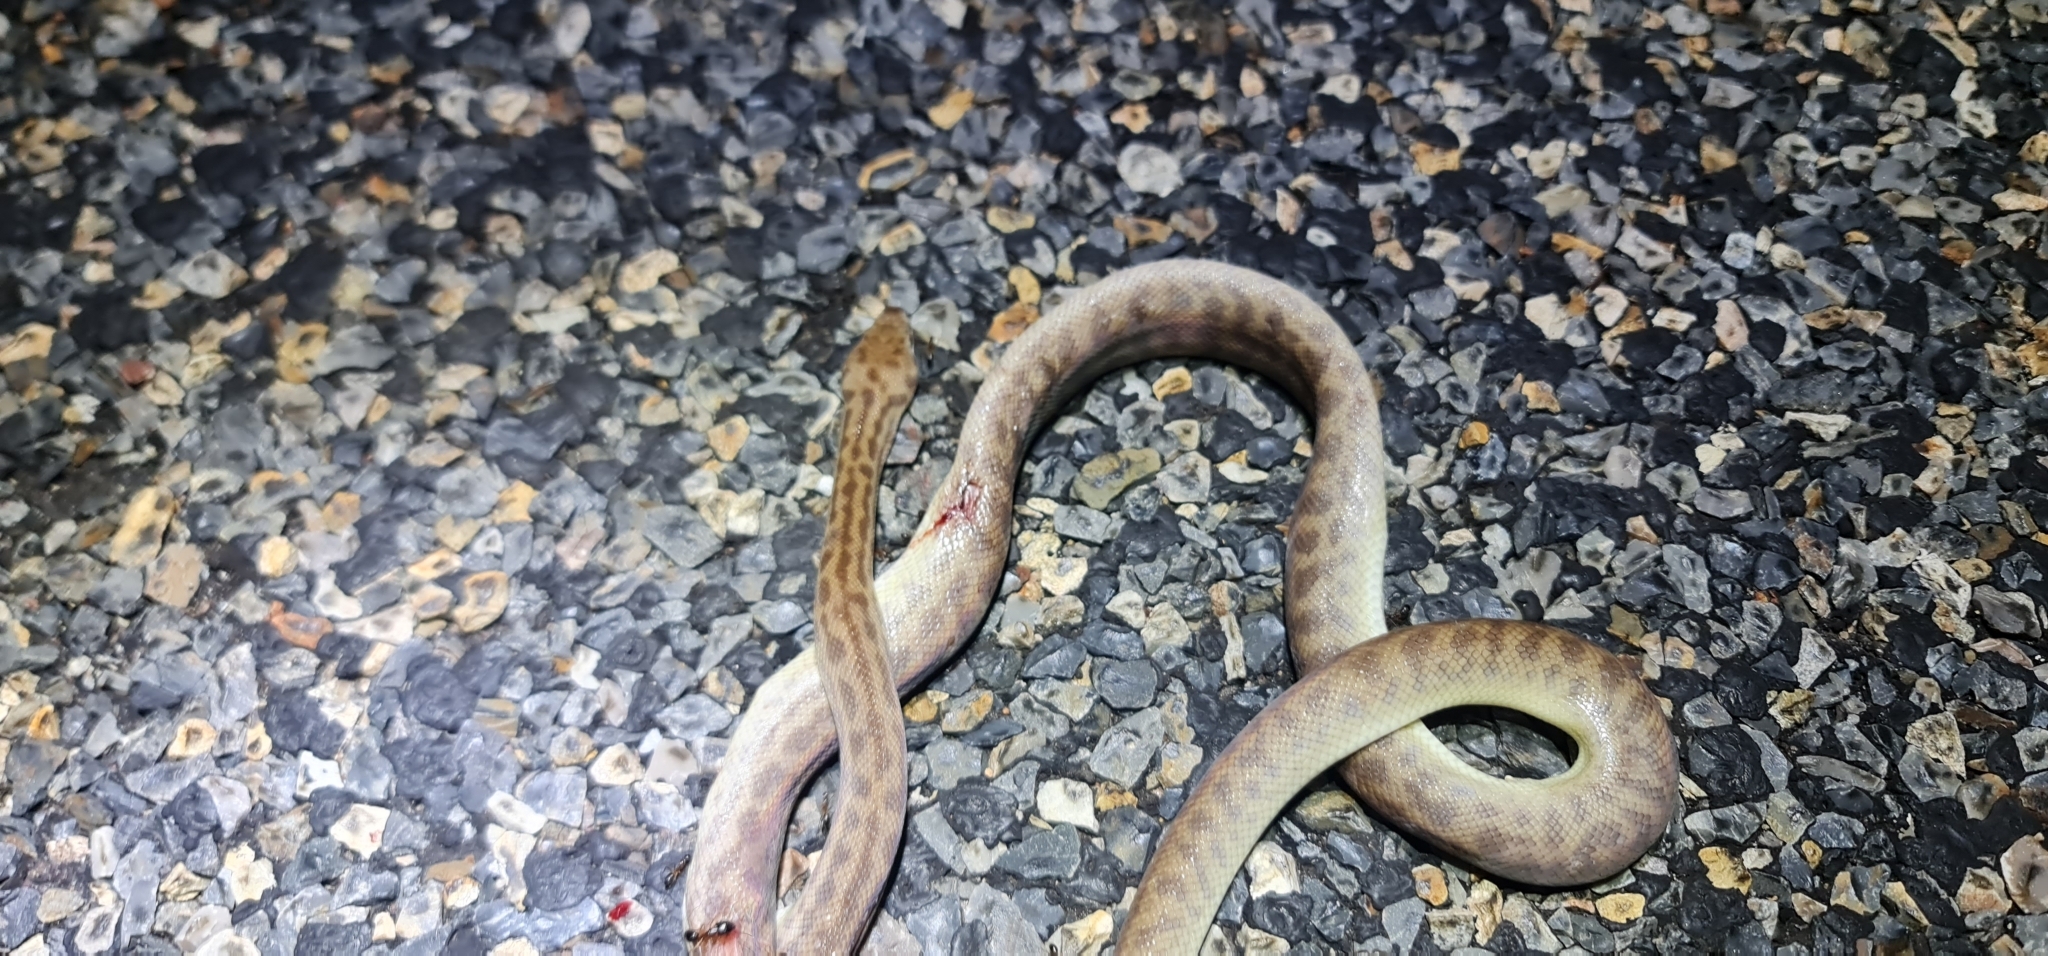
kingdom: Animalia
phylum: Chordata
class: Squamata
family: Pythonidae
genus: Antaresia
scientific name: Antaresia childreni
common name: Children's python
